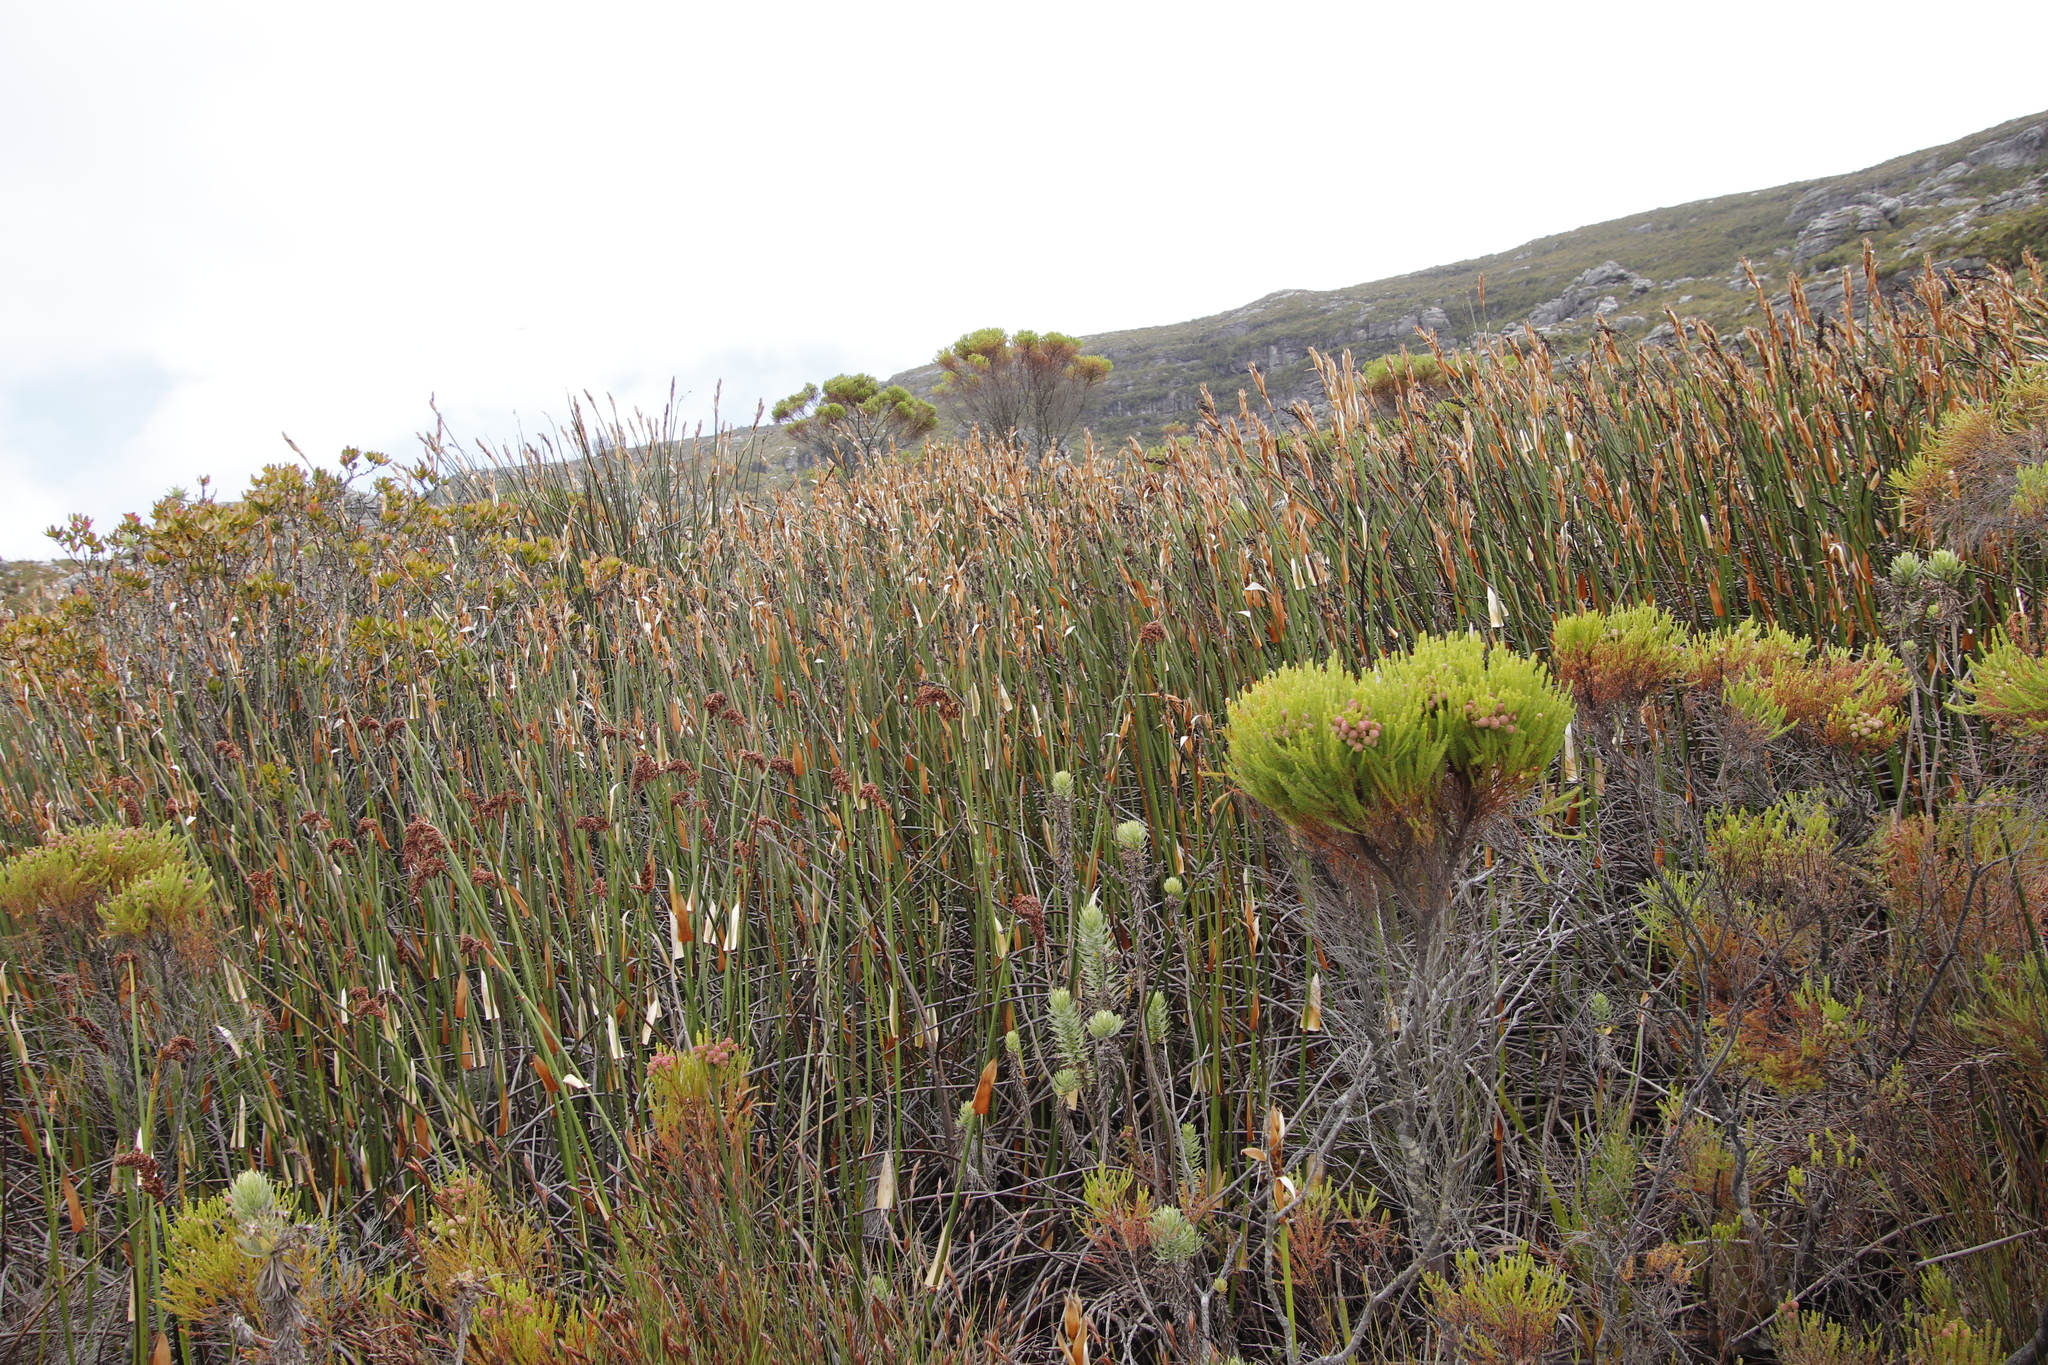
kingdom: Plantae
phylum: Tracheophyta
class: Liliopsida
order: Poales
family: Restionaceae
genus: Elegia
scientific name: Elegia mucronata
